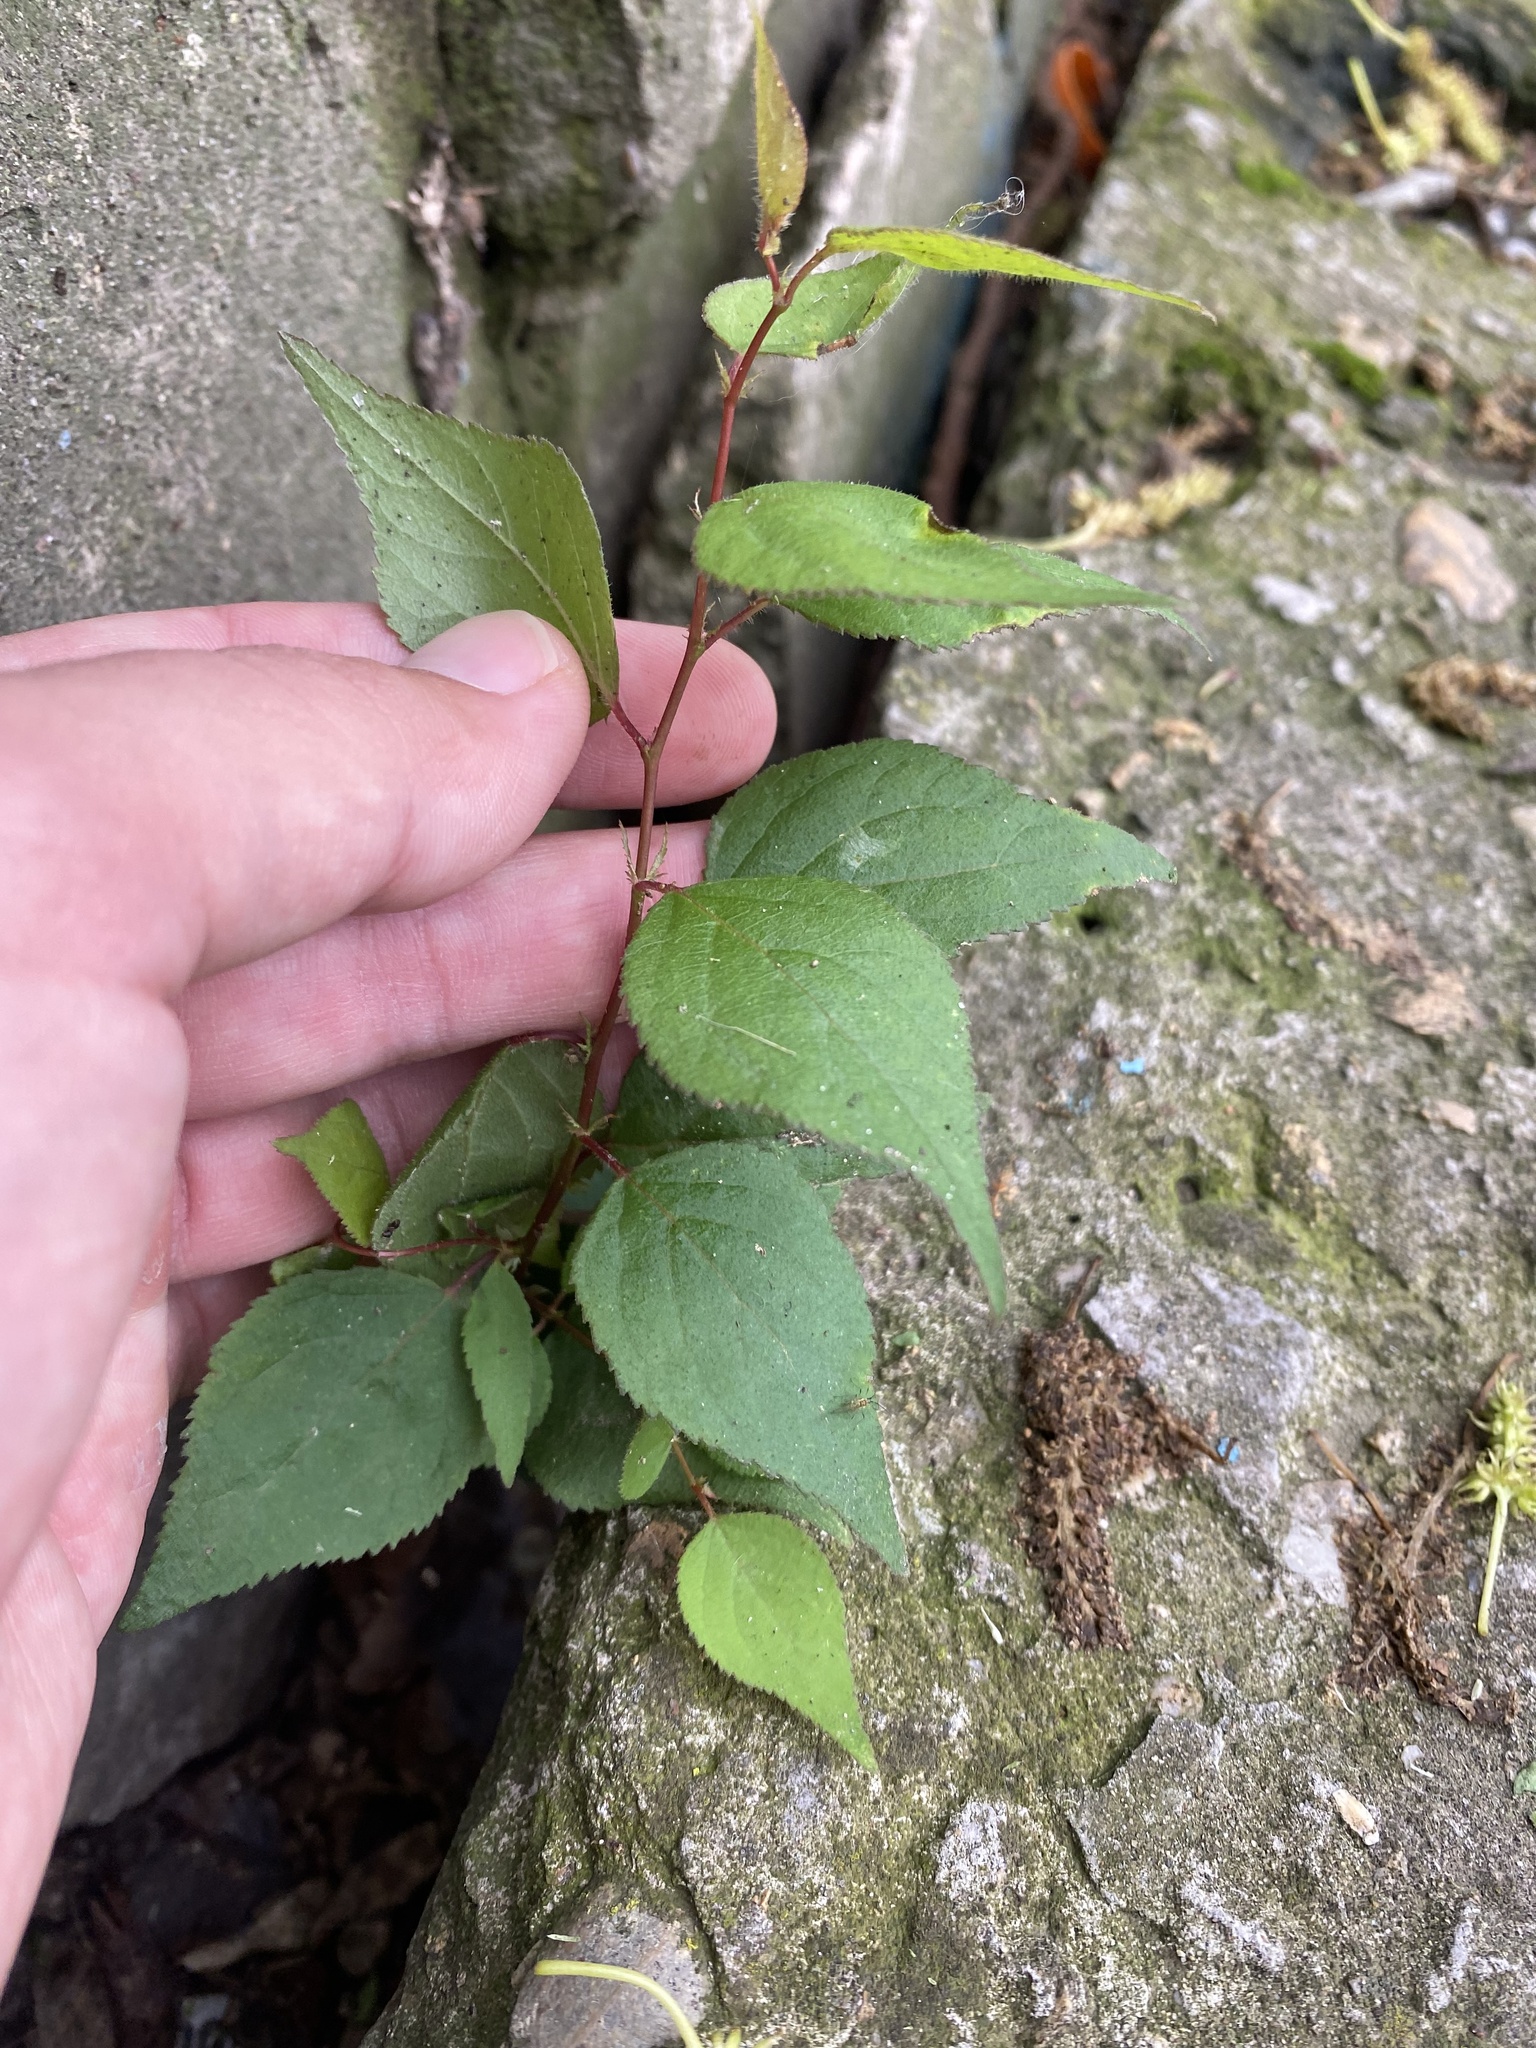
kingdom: Plantae
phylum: Tracheophyta
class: Magnoliopsida
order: Rosales
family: Rosaceae
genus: Prunus
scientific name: Prunus armeniaca
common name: Apricot
